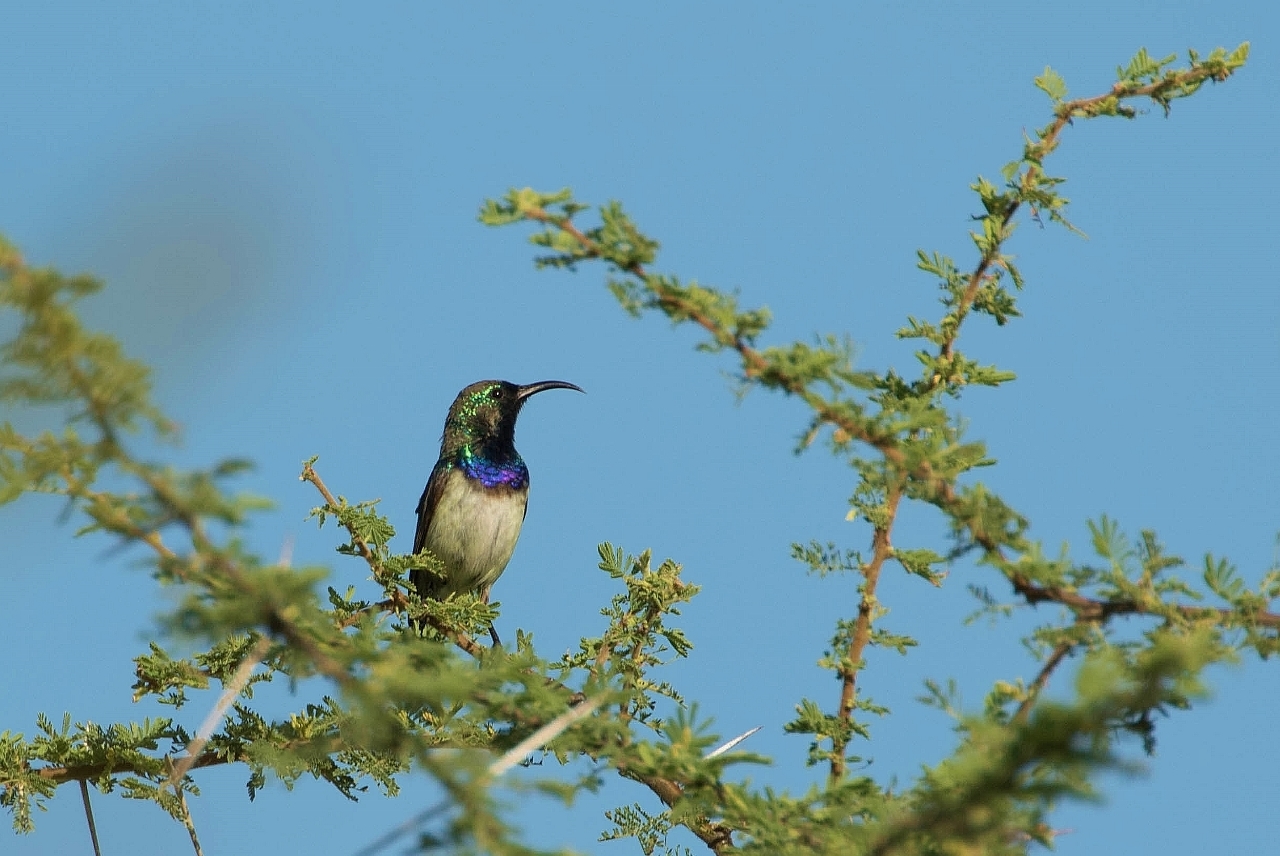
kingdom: Animalia
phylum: Chordata
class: Aves
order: Passeriformes
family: Nectariniidae
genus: Cinnyris
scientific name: Cinnyris talatala
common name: White-bellied sunbird
